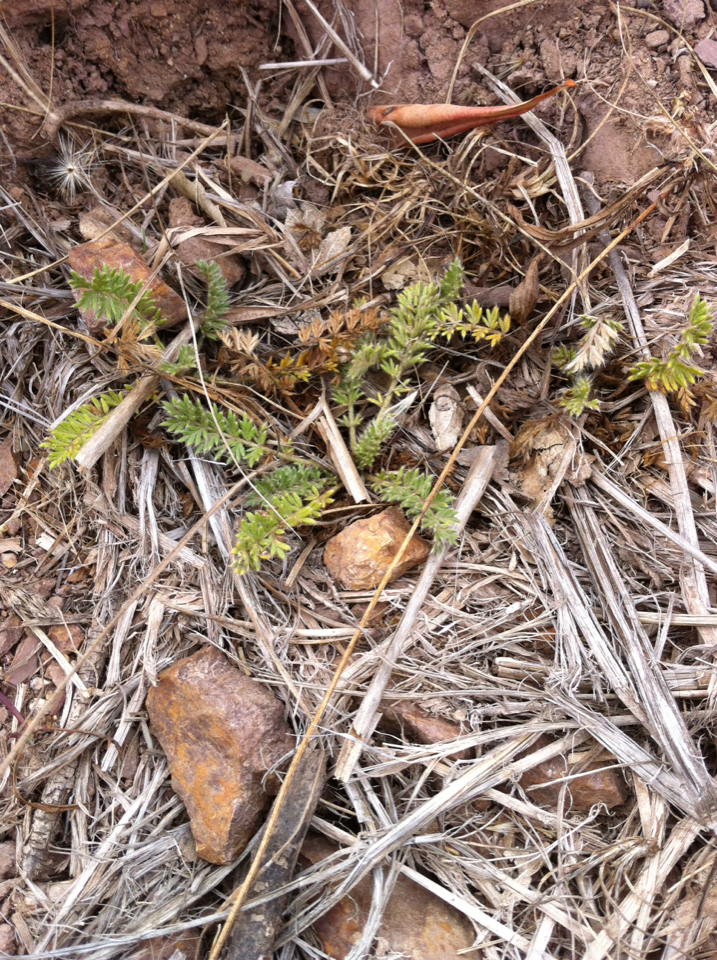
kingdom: Plantae
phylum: Tracheophyta
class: Magnoliopsida
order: Rosales
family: Rosaceae
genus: Acaena
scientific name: Acaena pinnatifida
